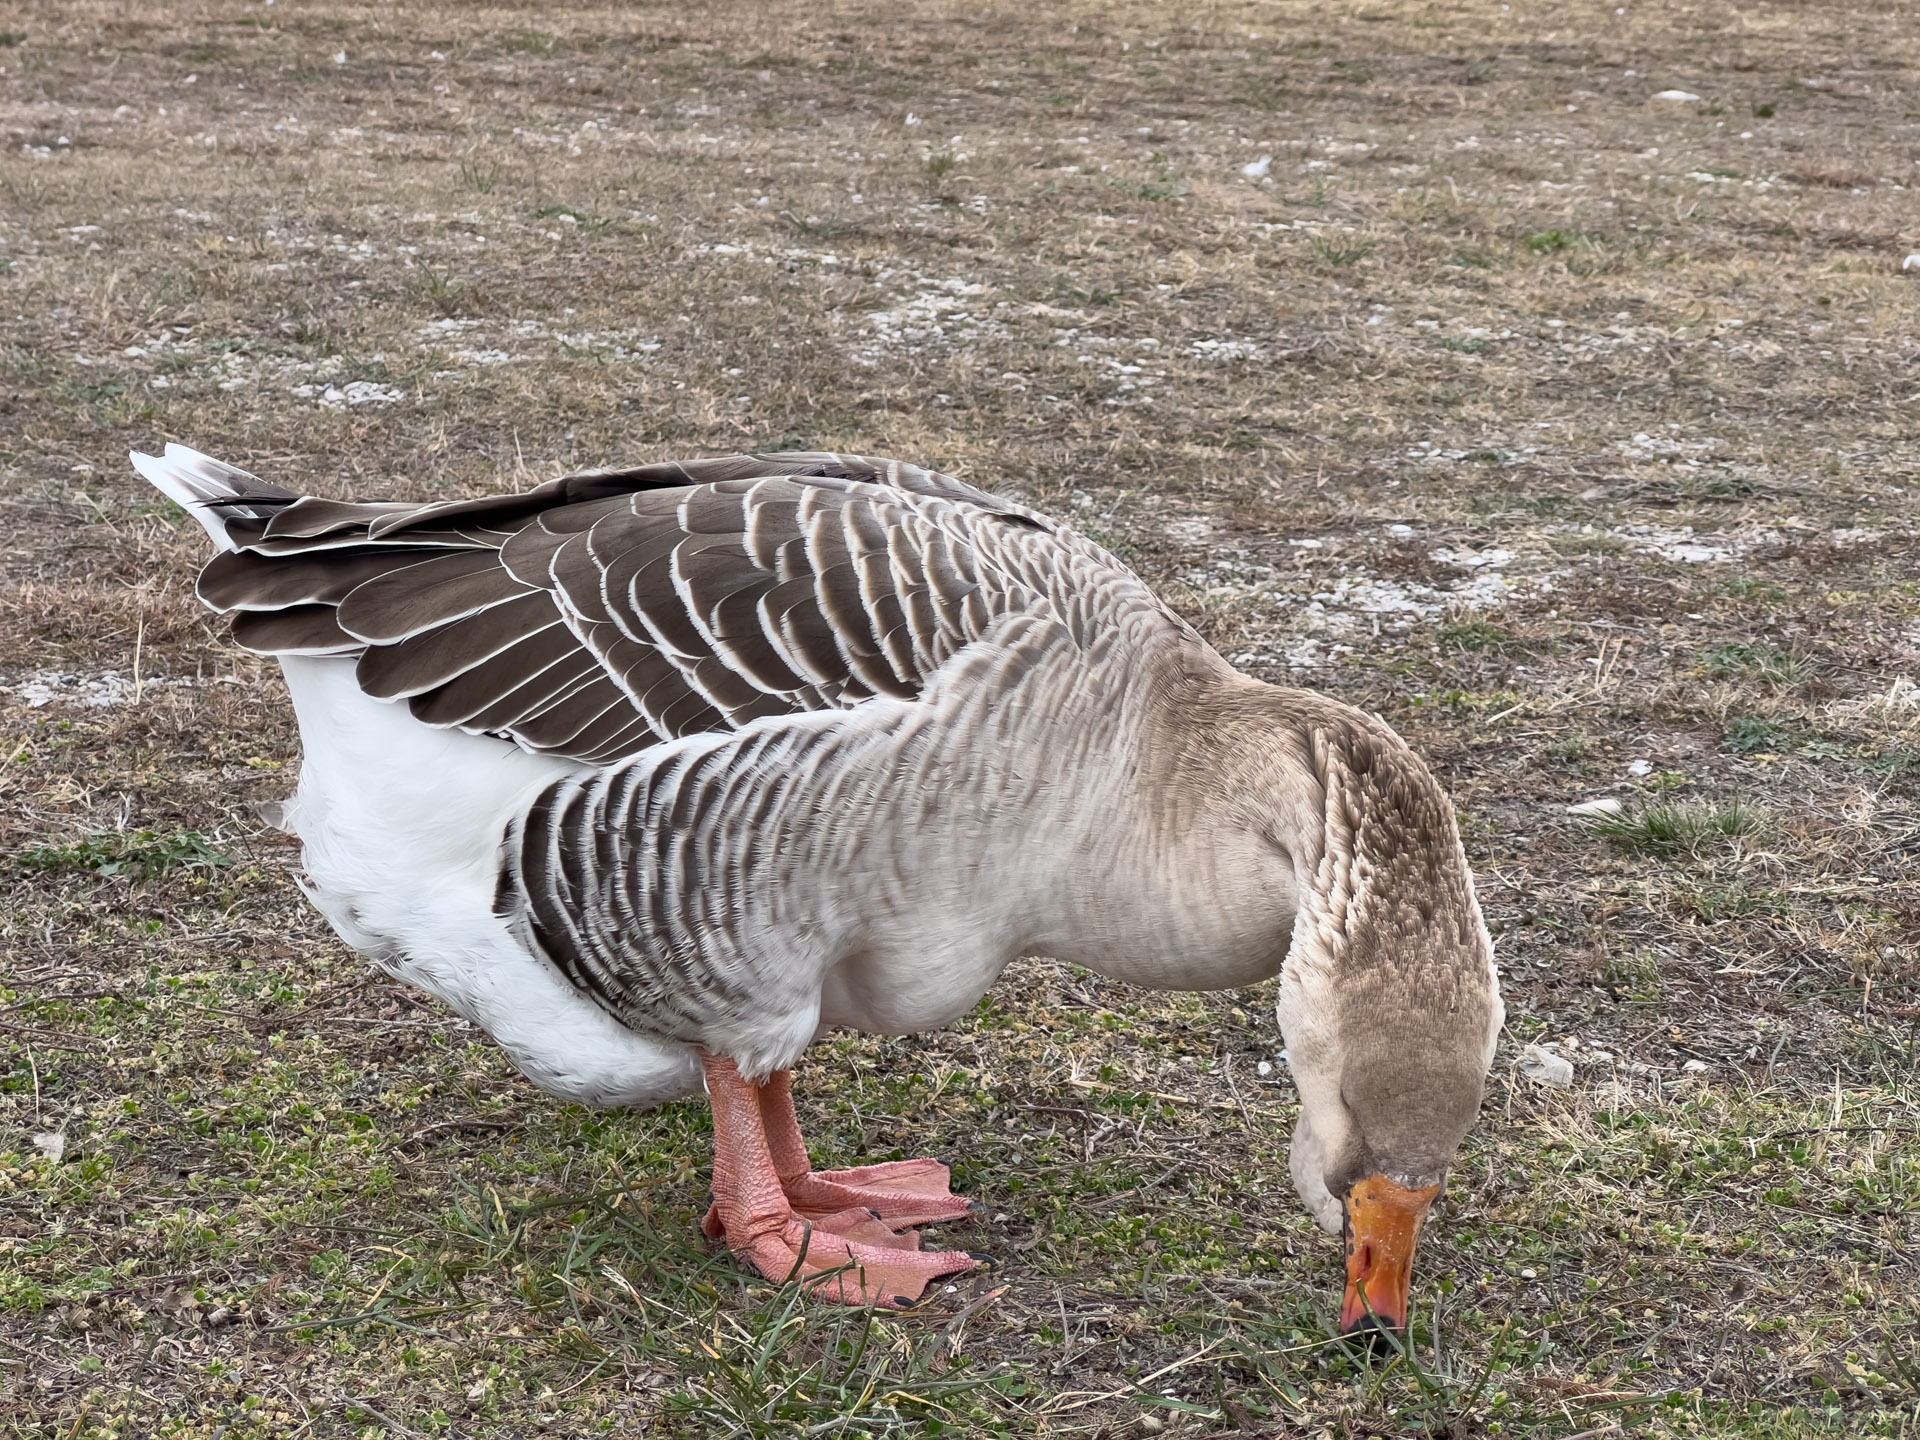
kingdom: Animalia
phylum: Chordata
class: Aves
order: Anseriformes
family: Anatidae
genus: Anser
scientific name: Anser
